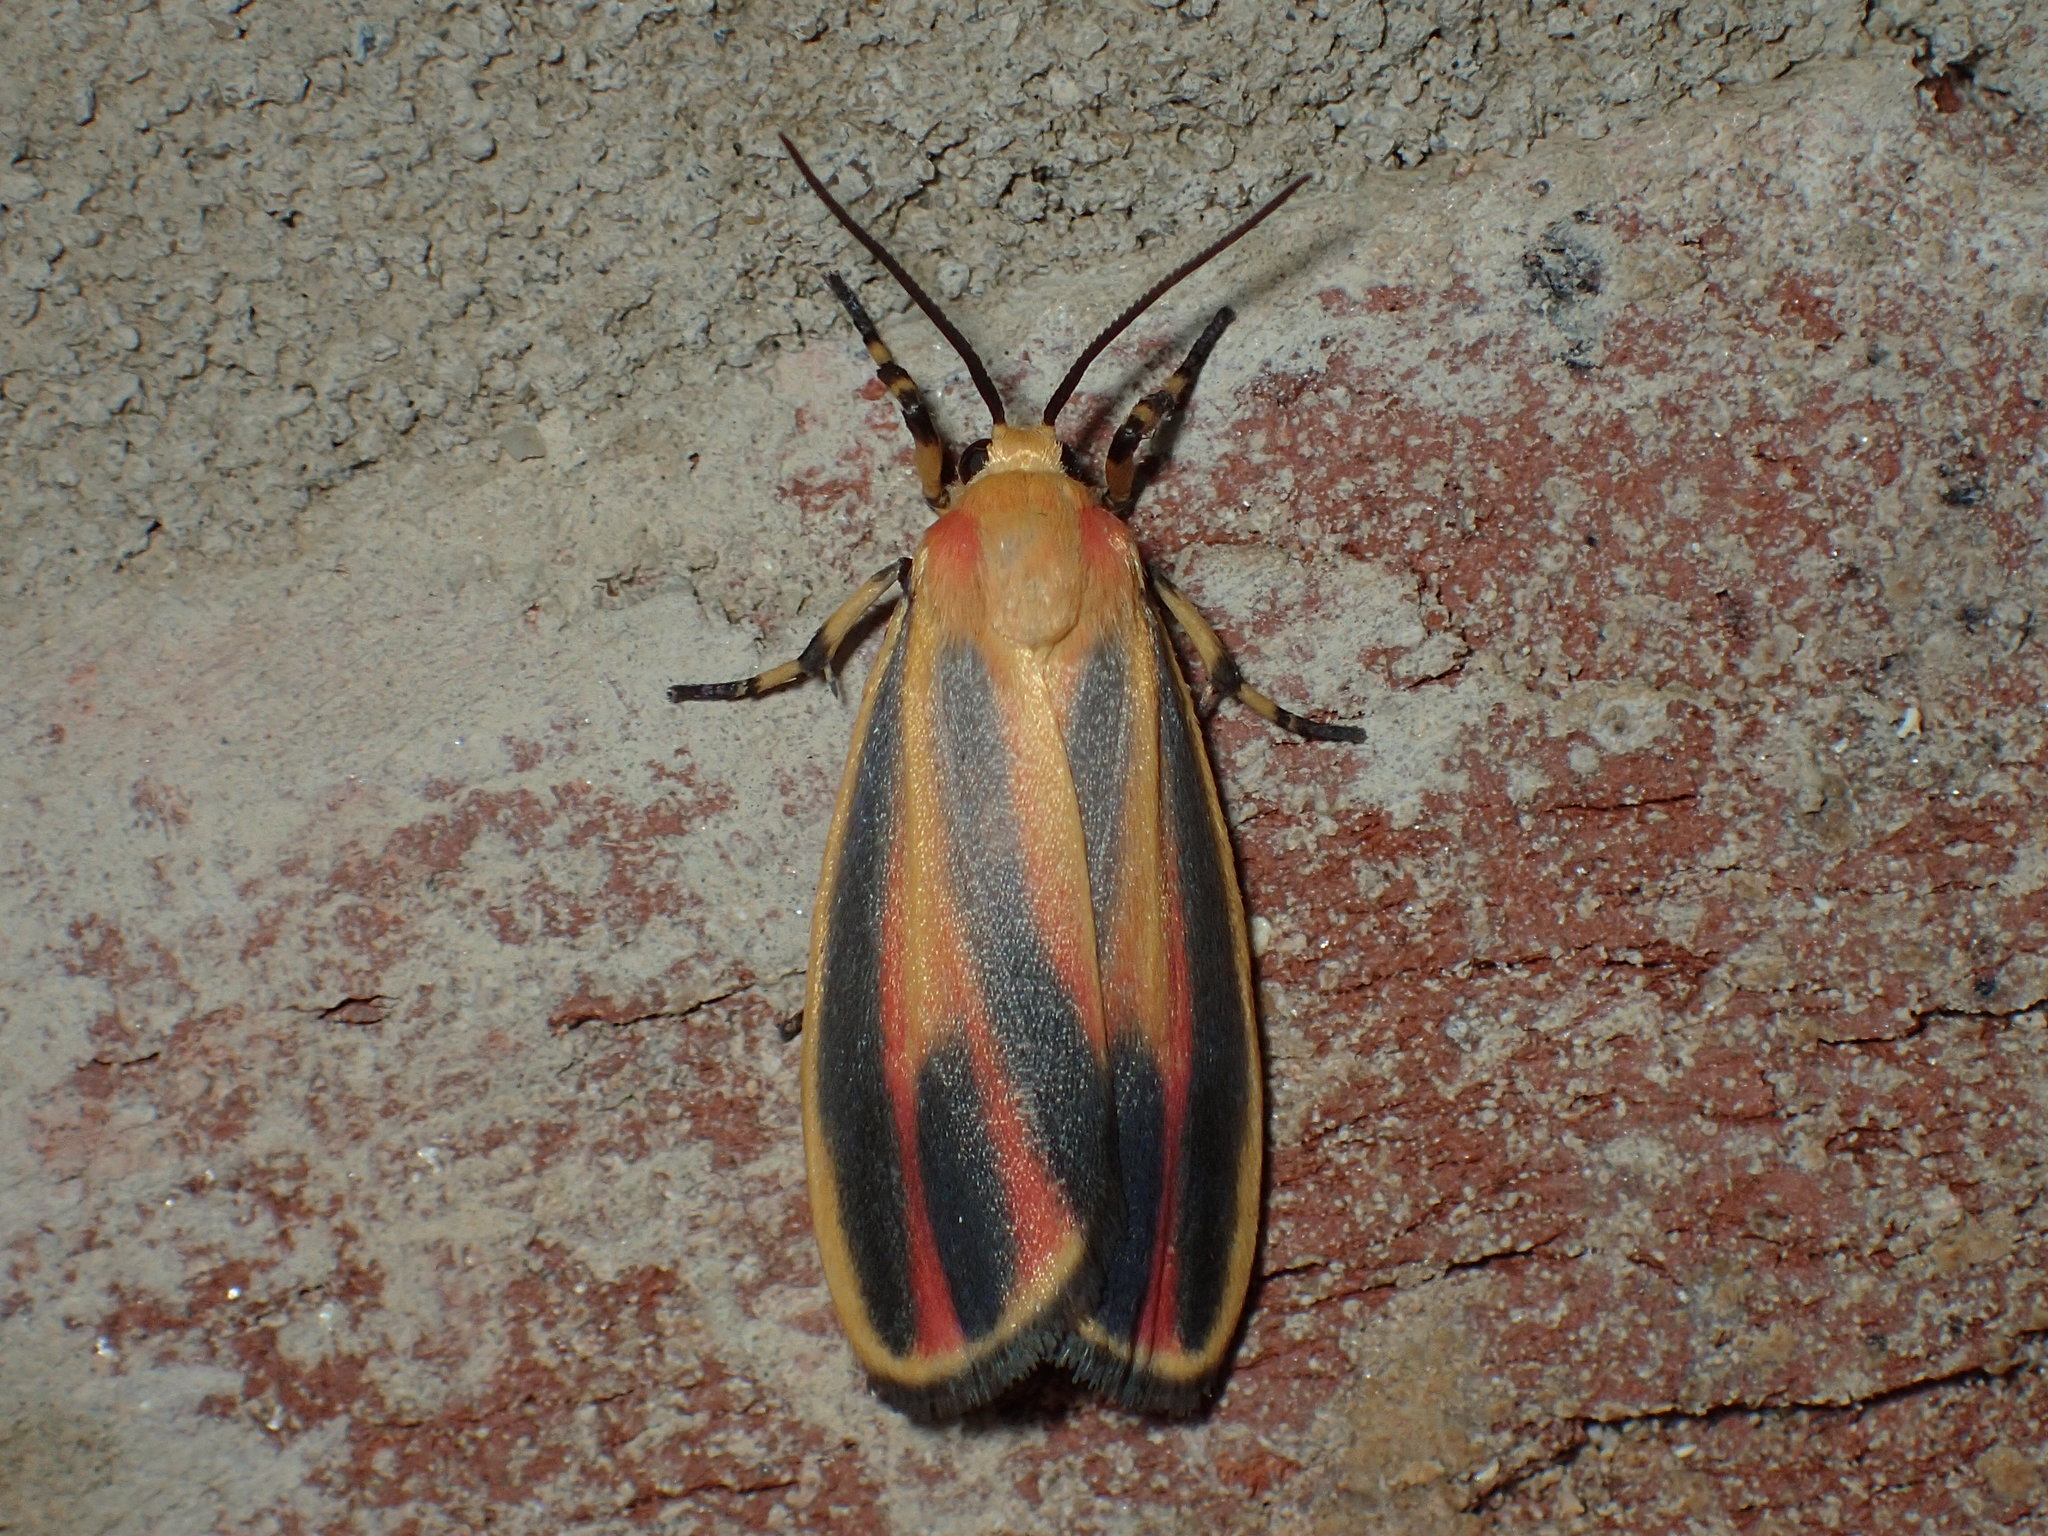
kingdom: Animalia
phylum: Arthropoda
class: Insecta
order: Lepidoptera
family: Erebidae
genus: Hypoprepia
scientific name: Hypoprepia fucosa
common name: Painted lichen moth
